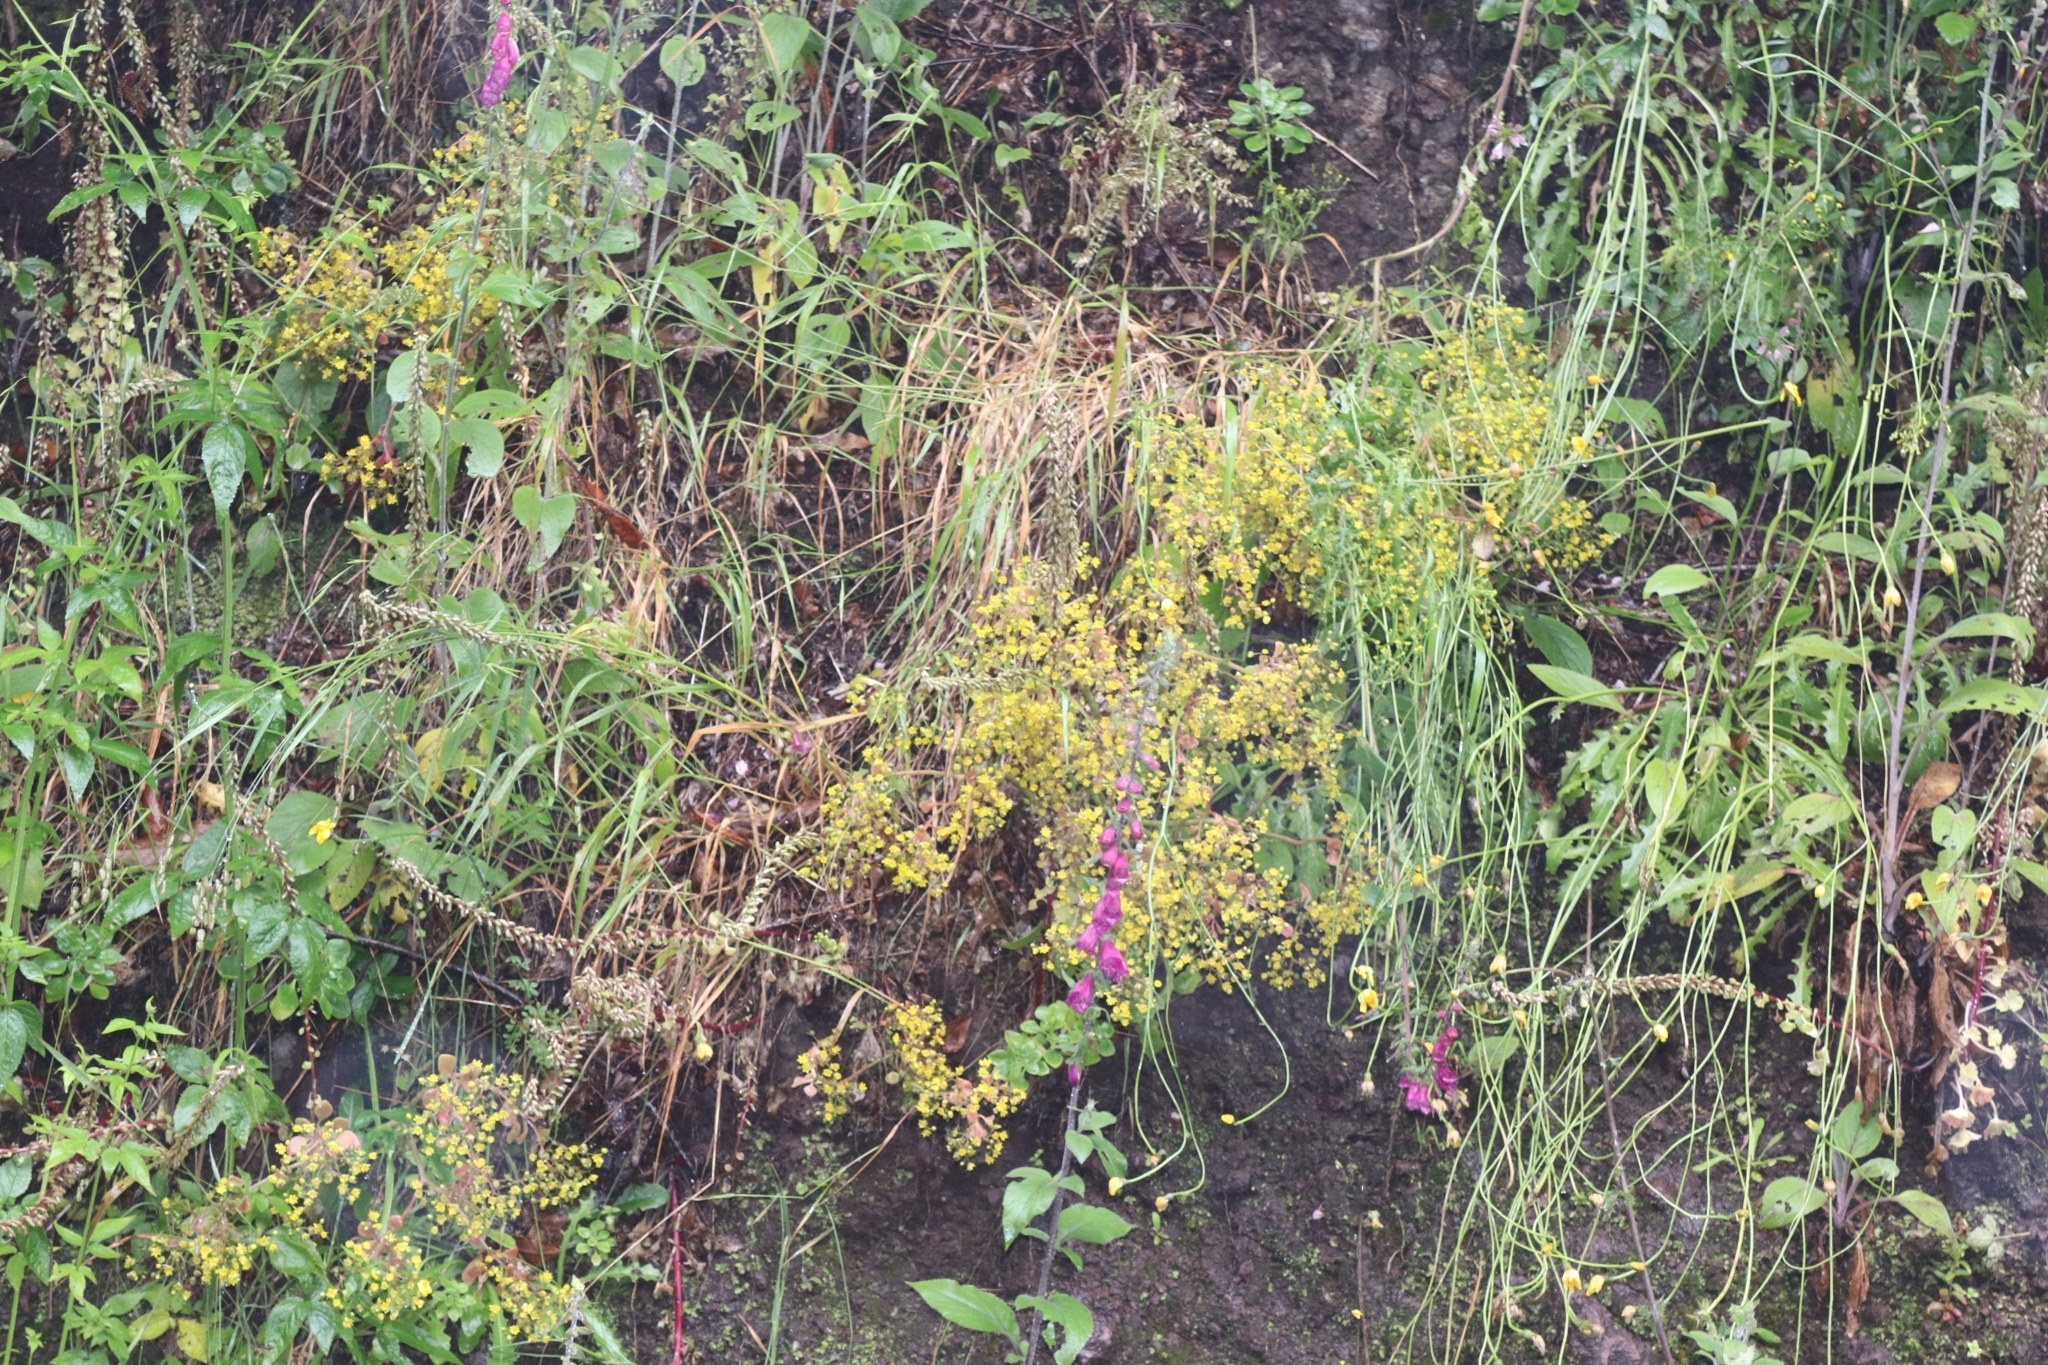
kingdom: Plantae
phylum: Tracheophyta
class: Magnoliopsida
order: Saxifragales
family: Crassulaceae
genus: Umbilicus
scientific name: Umbilicus rupestris
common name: Navelwort
